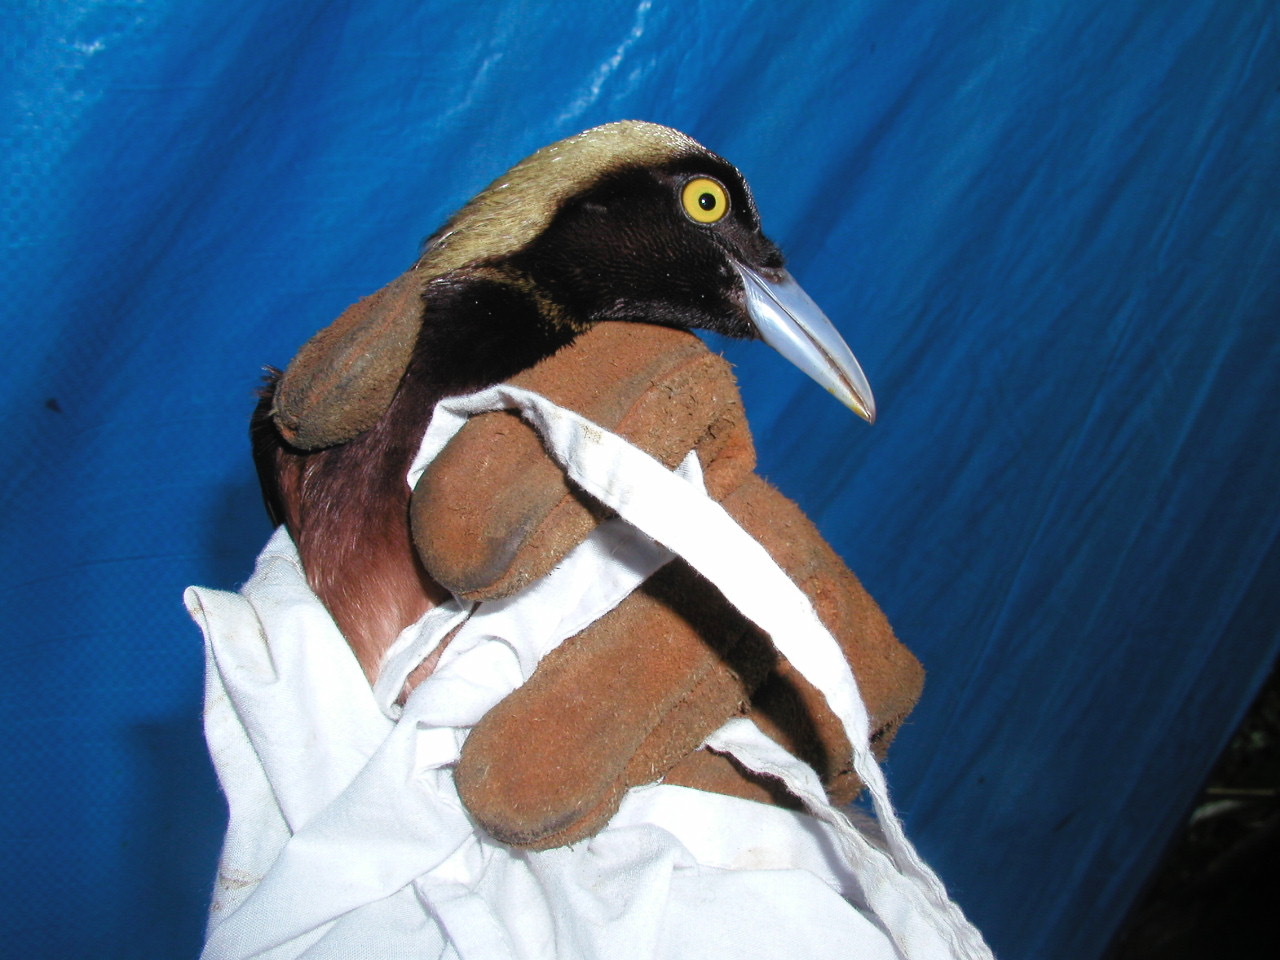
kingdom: Animalia
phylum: Chordata
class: Aves
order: Passeriformes
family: Paradisaeidae
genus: Paradisaea
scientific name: Paradisaea raggiana
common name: Raggiana bird-of-paradise
